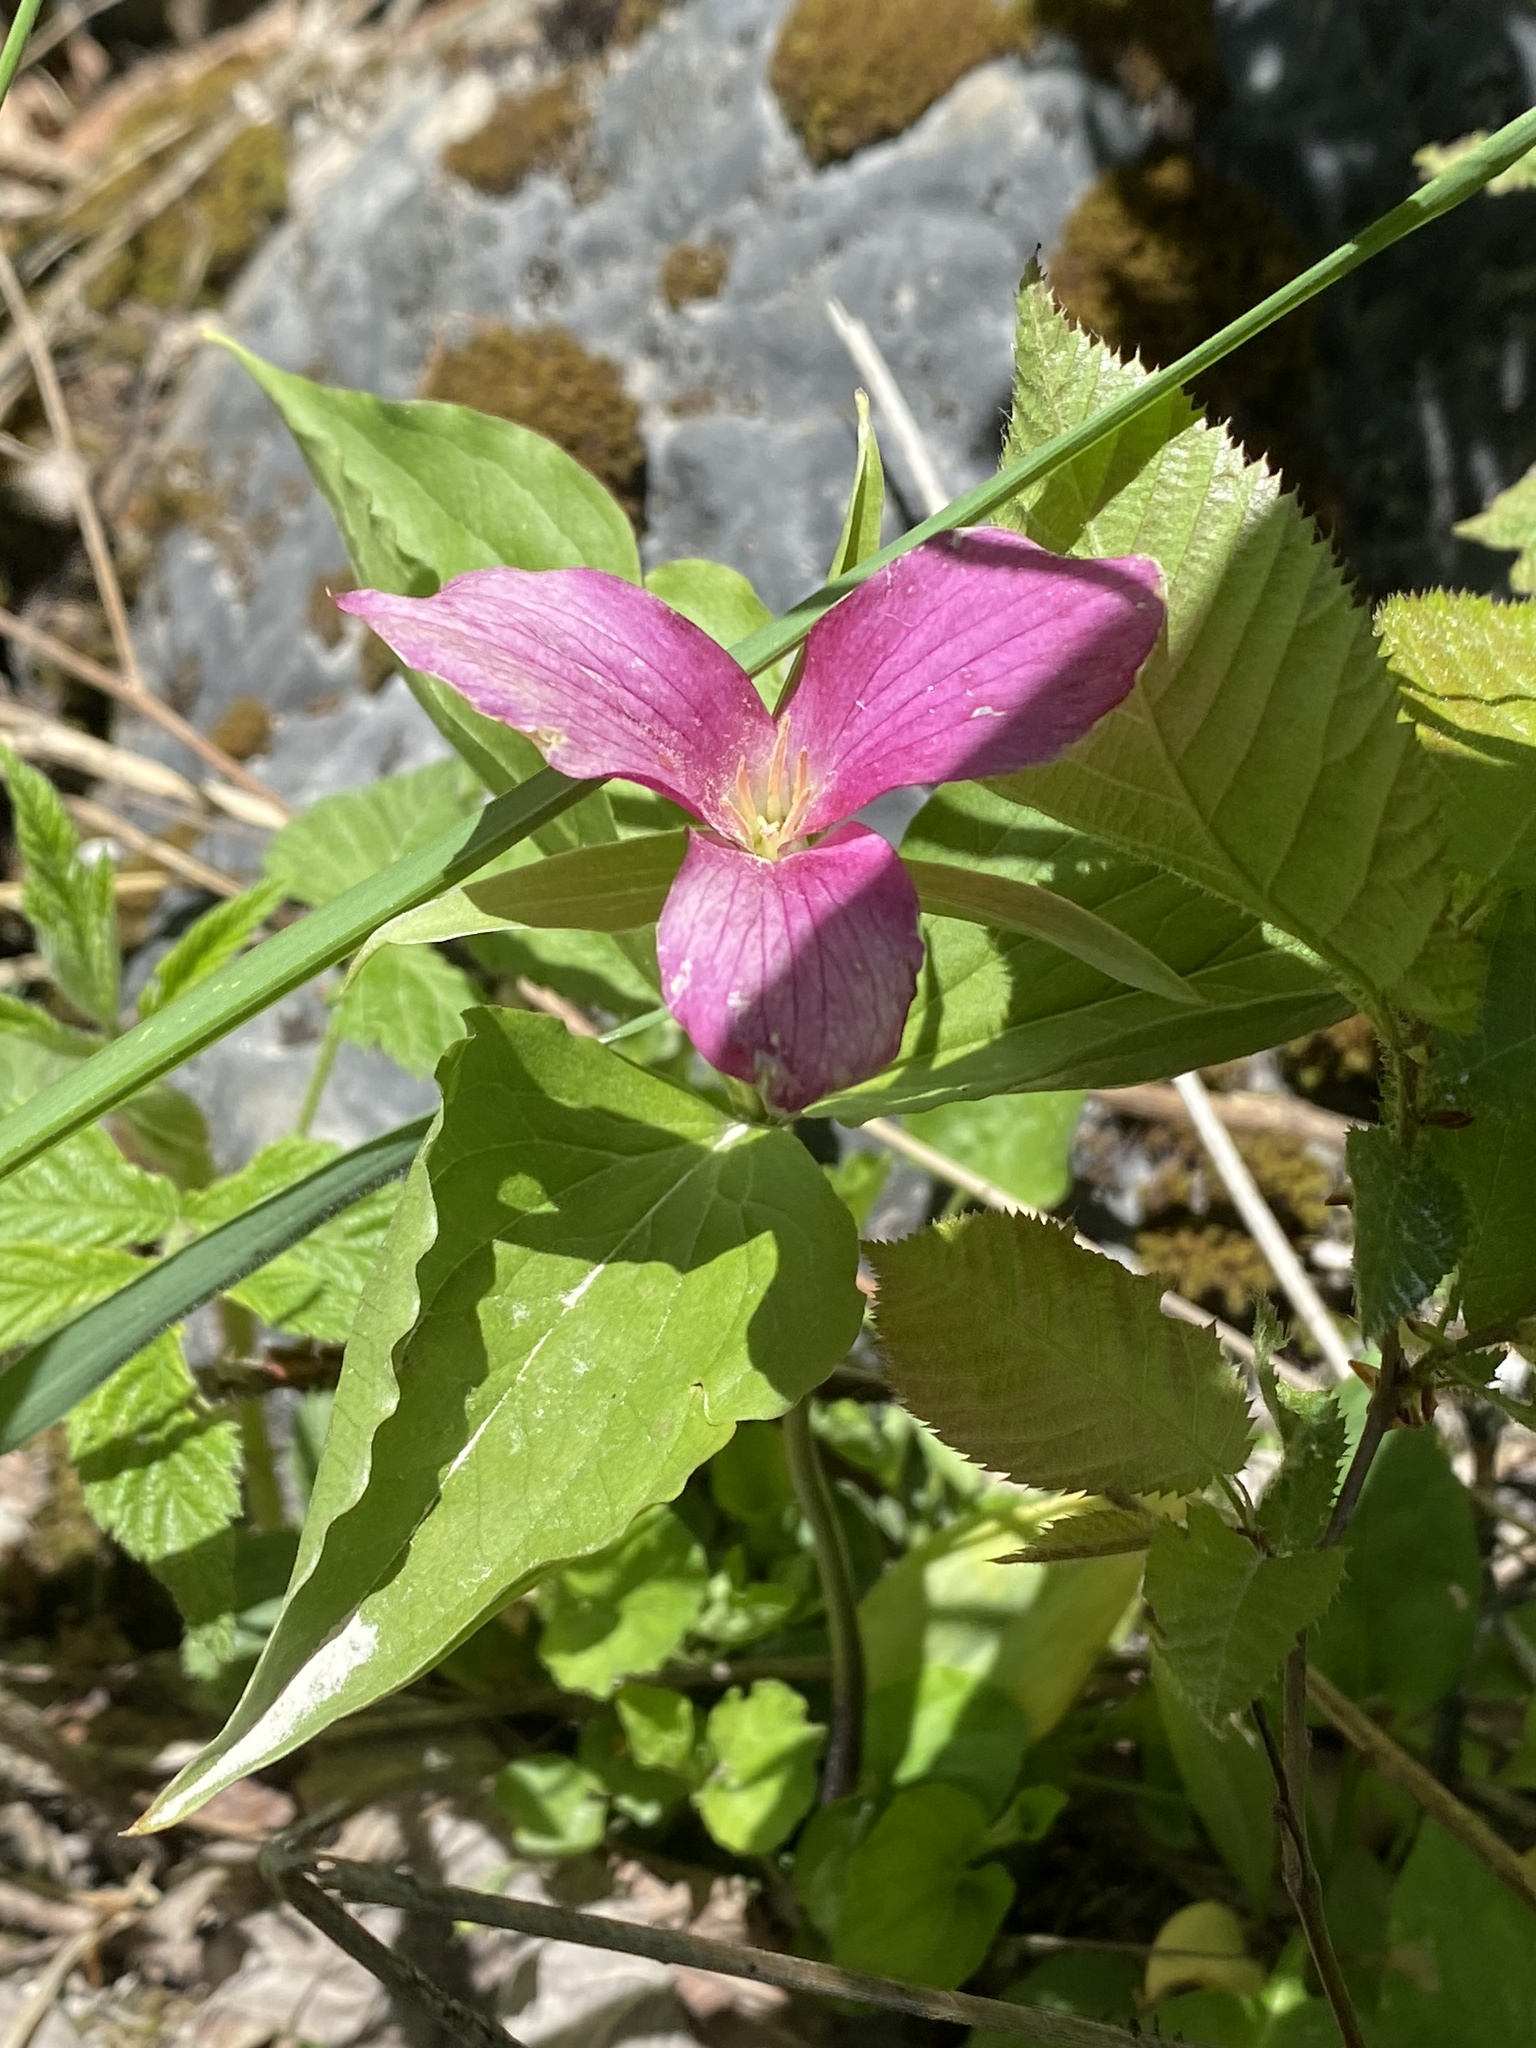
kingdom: Plantae
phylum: Tracheophyta
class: Liliopsida
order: Liliales
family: Melanthiaceae
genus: Trillium
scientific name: Trillium grandiflorum
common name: Great white trillium
